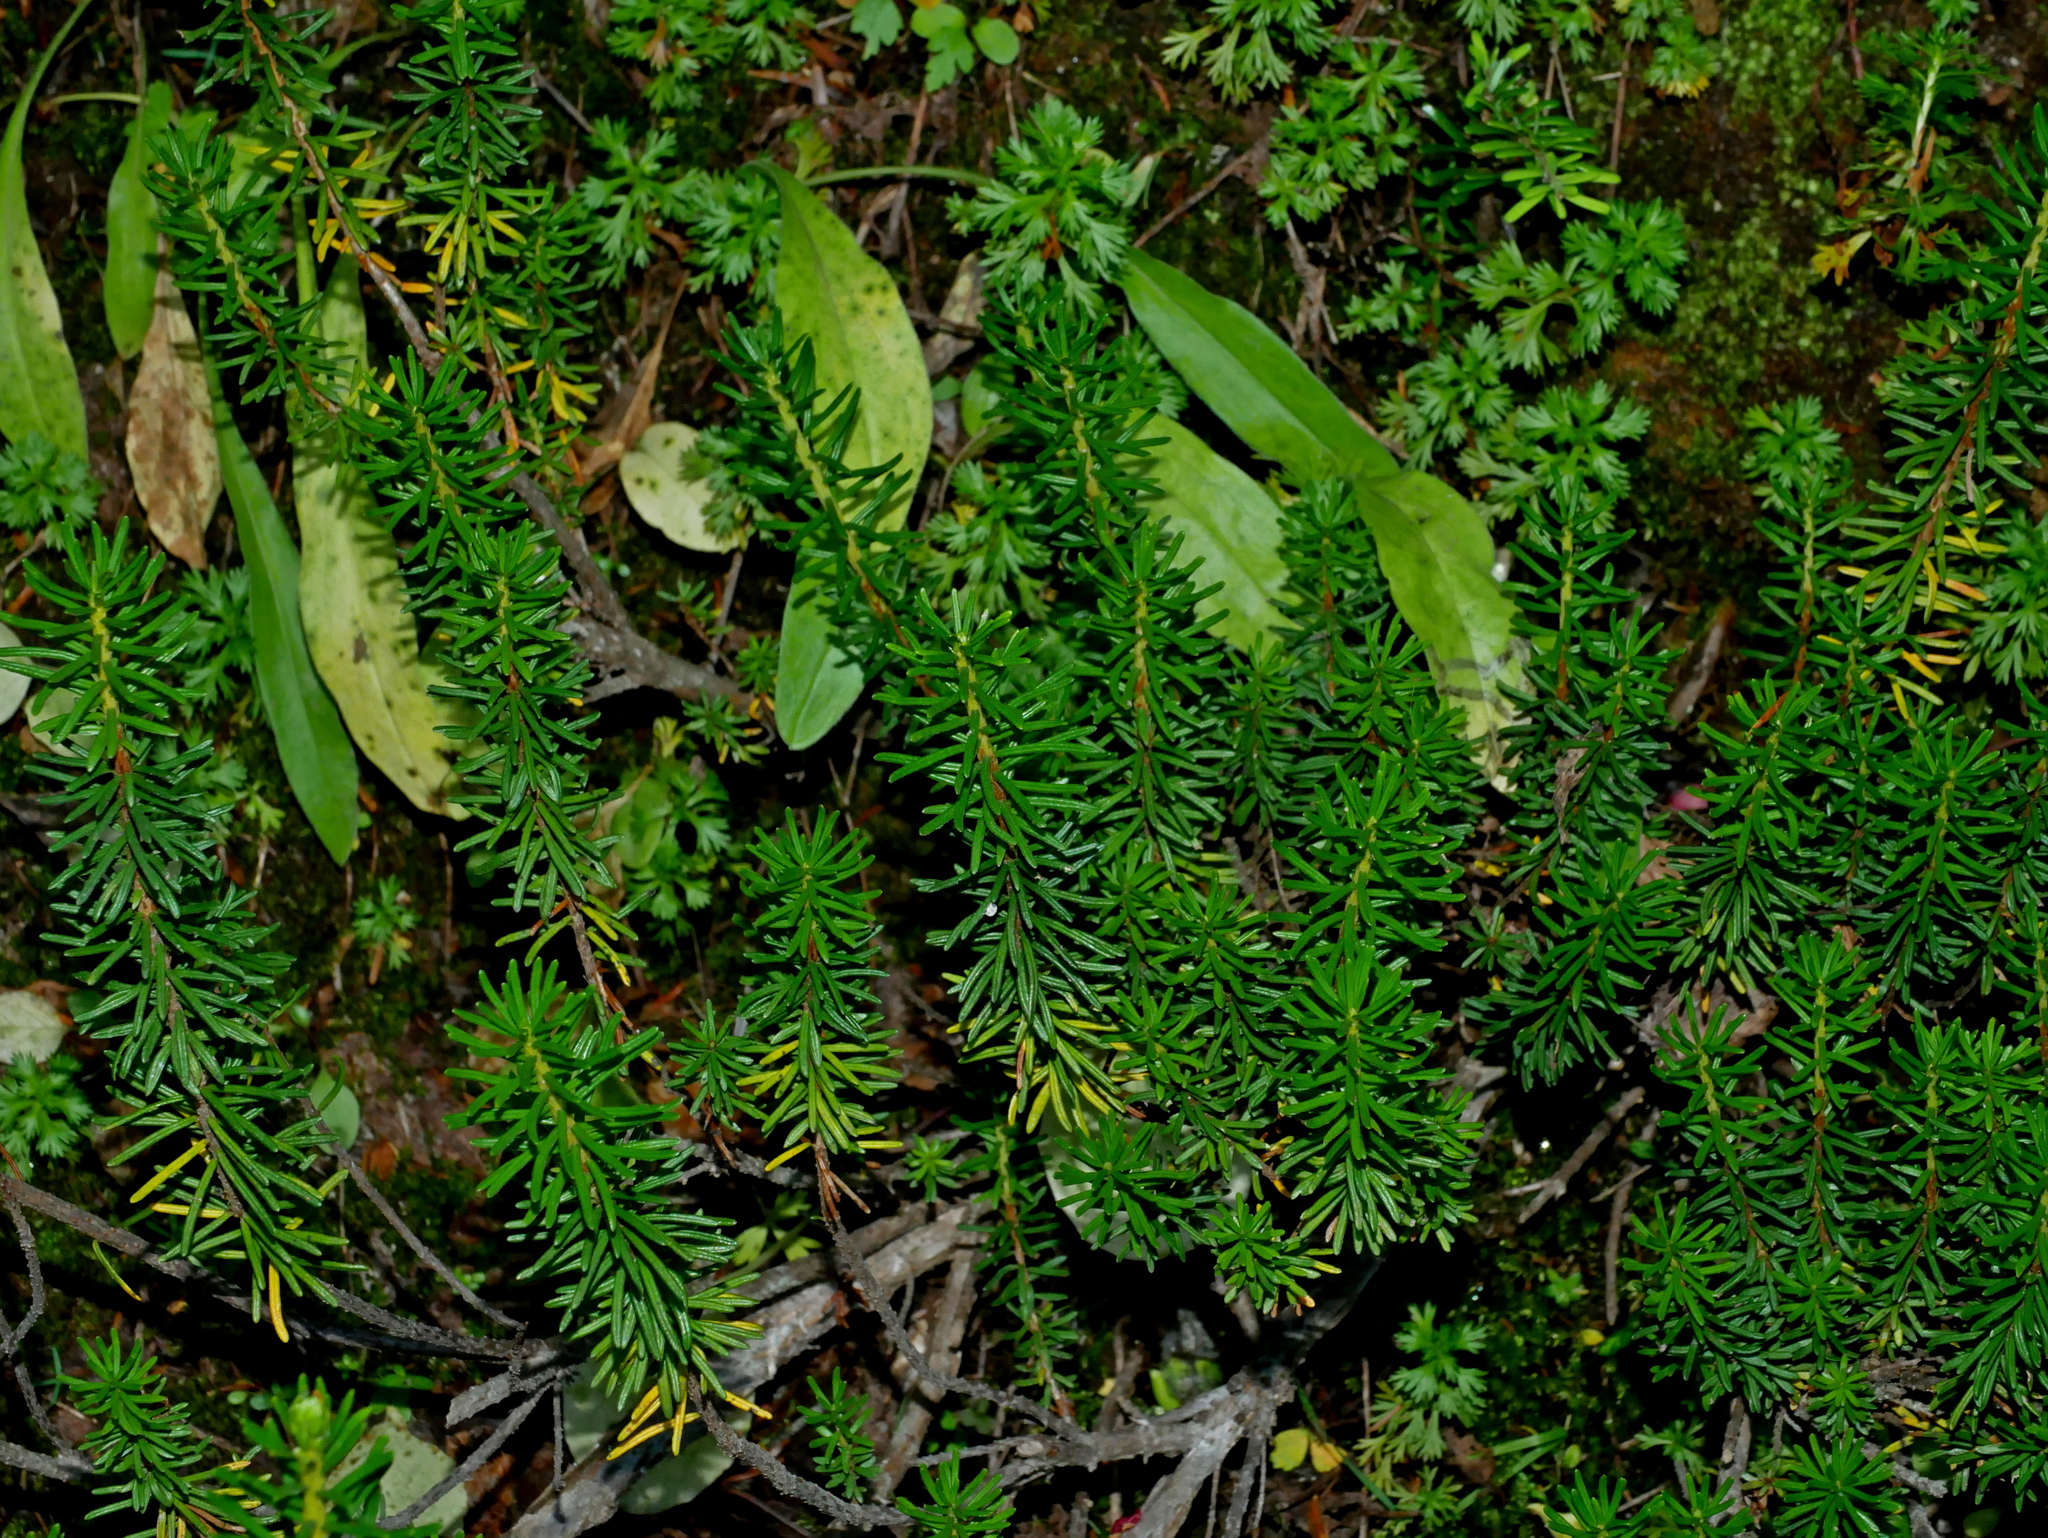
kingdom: Plantae
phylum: Tracheophyta
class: Magnoliopsida
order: Ericales
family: Ericaceae
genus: Phyllodoce
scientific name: Phyllodoce empetriformis
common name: Pink mountain heather
